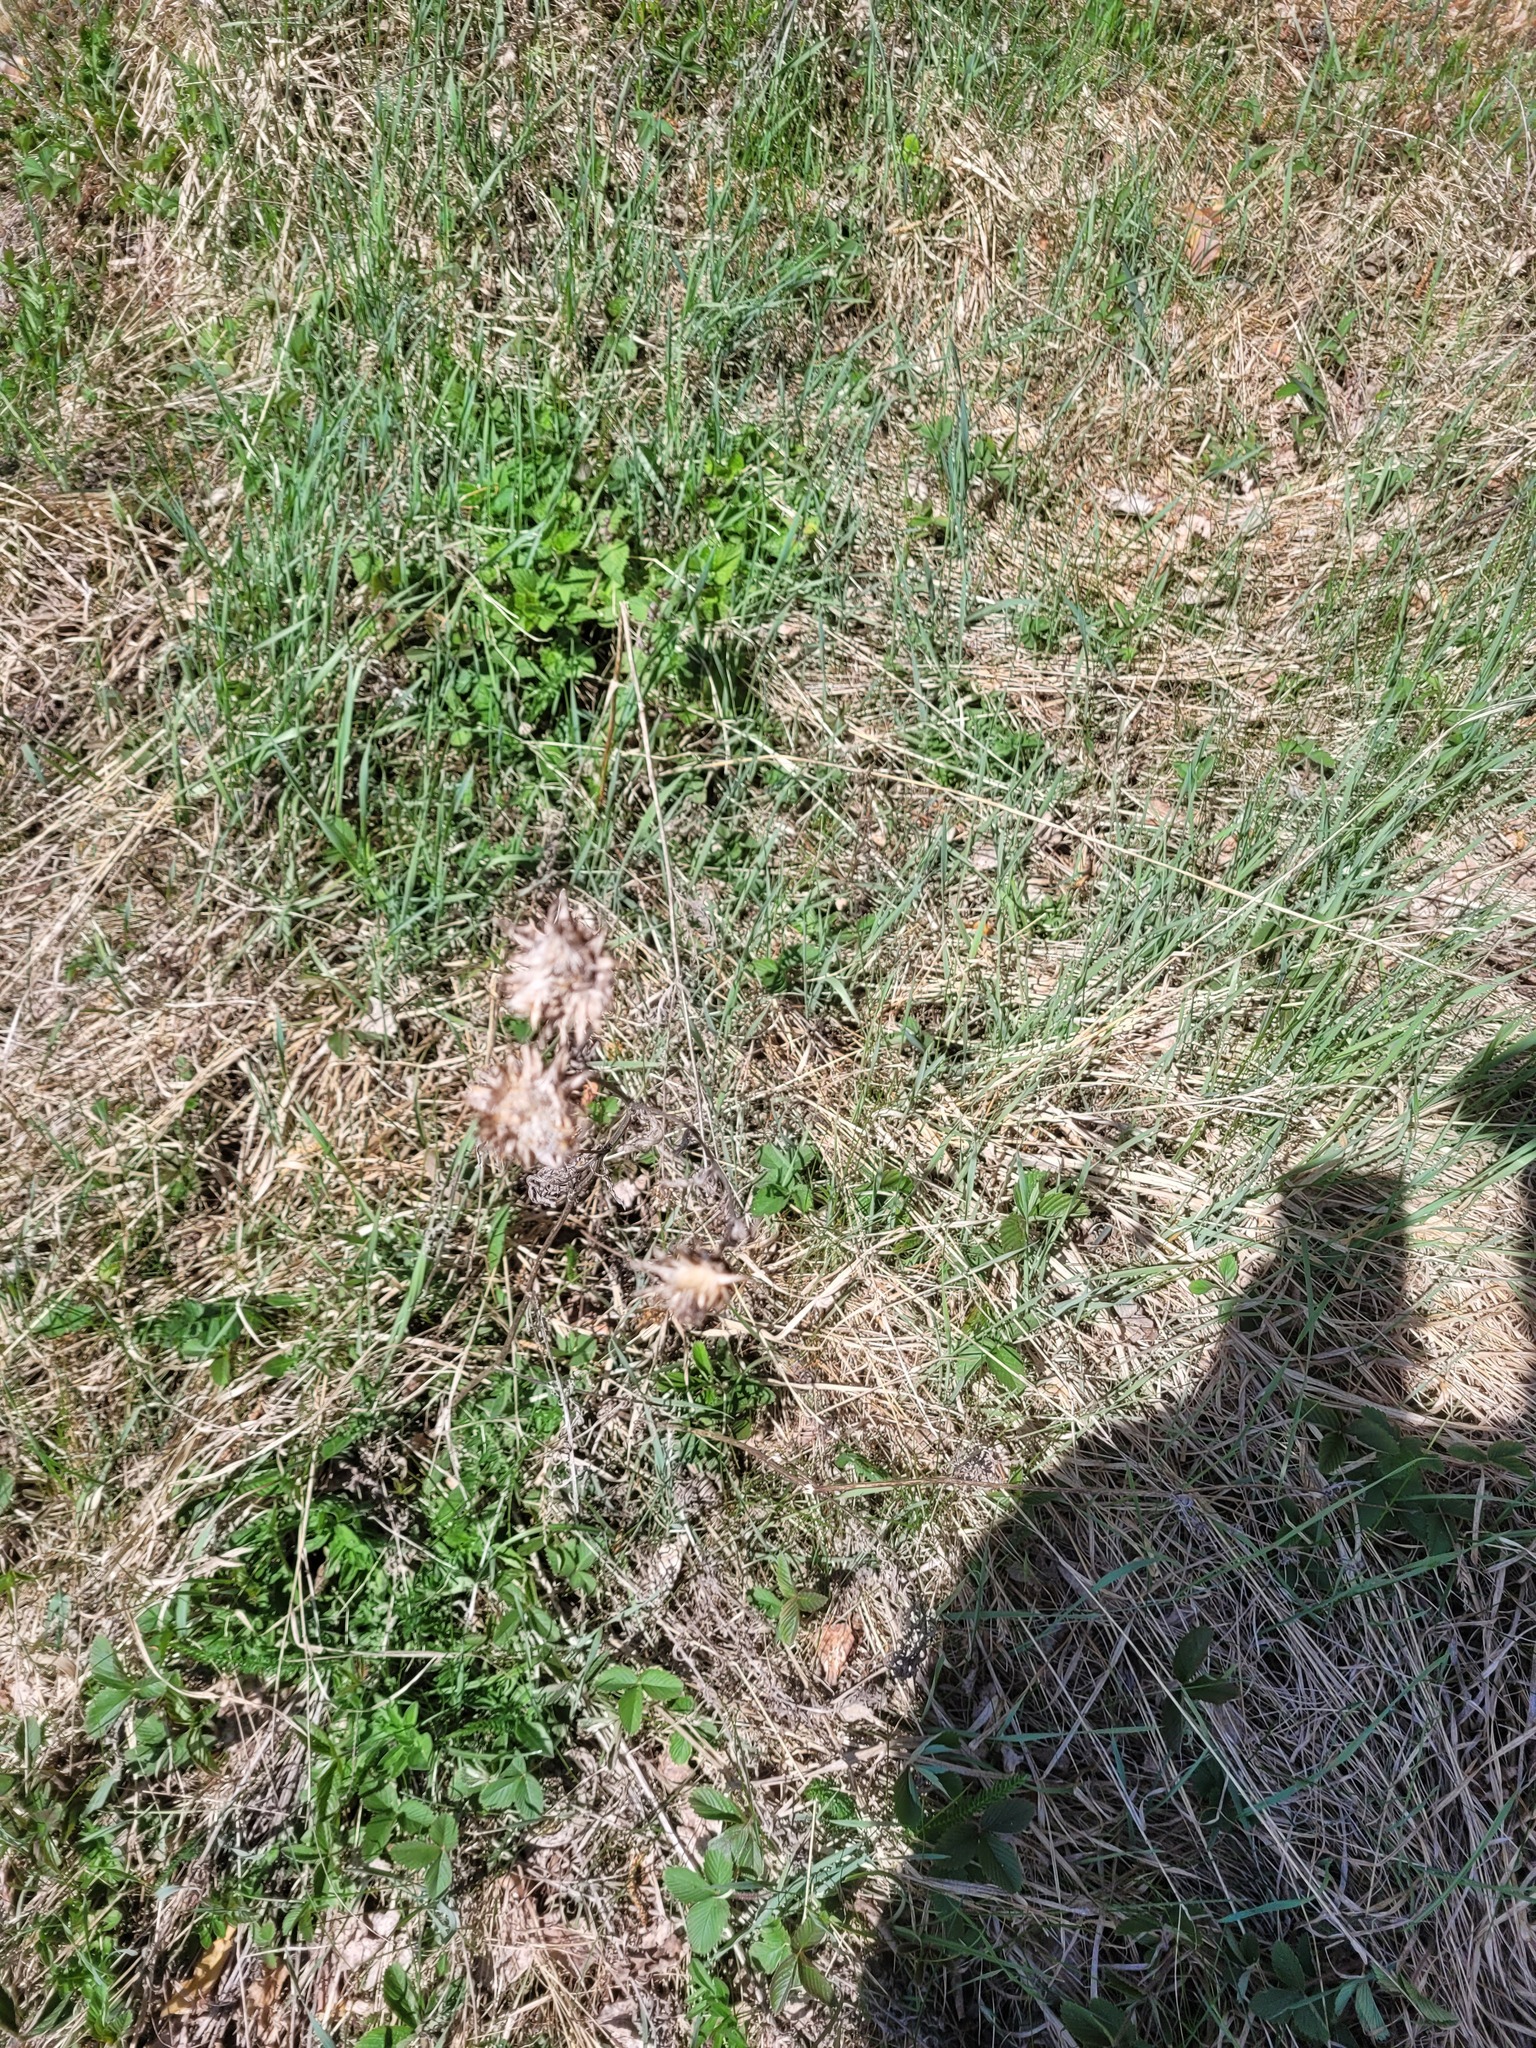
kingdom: Plantae
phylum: Tracheophyta
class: Magnoliopsida
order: Asterales
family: Asteraceae
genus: Centaurea
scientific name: Centaurea scabiosa
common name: Greater knapweed
